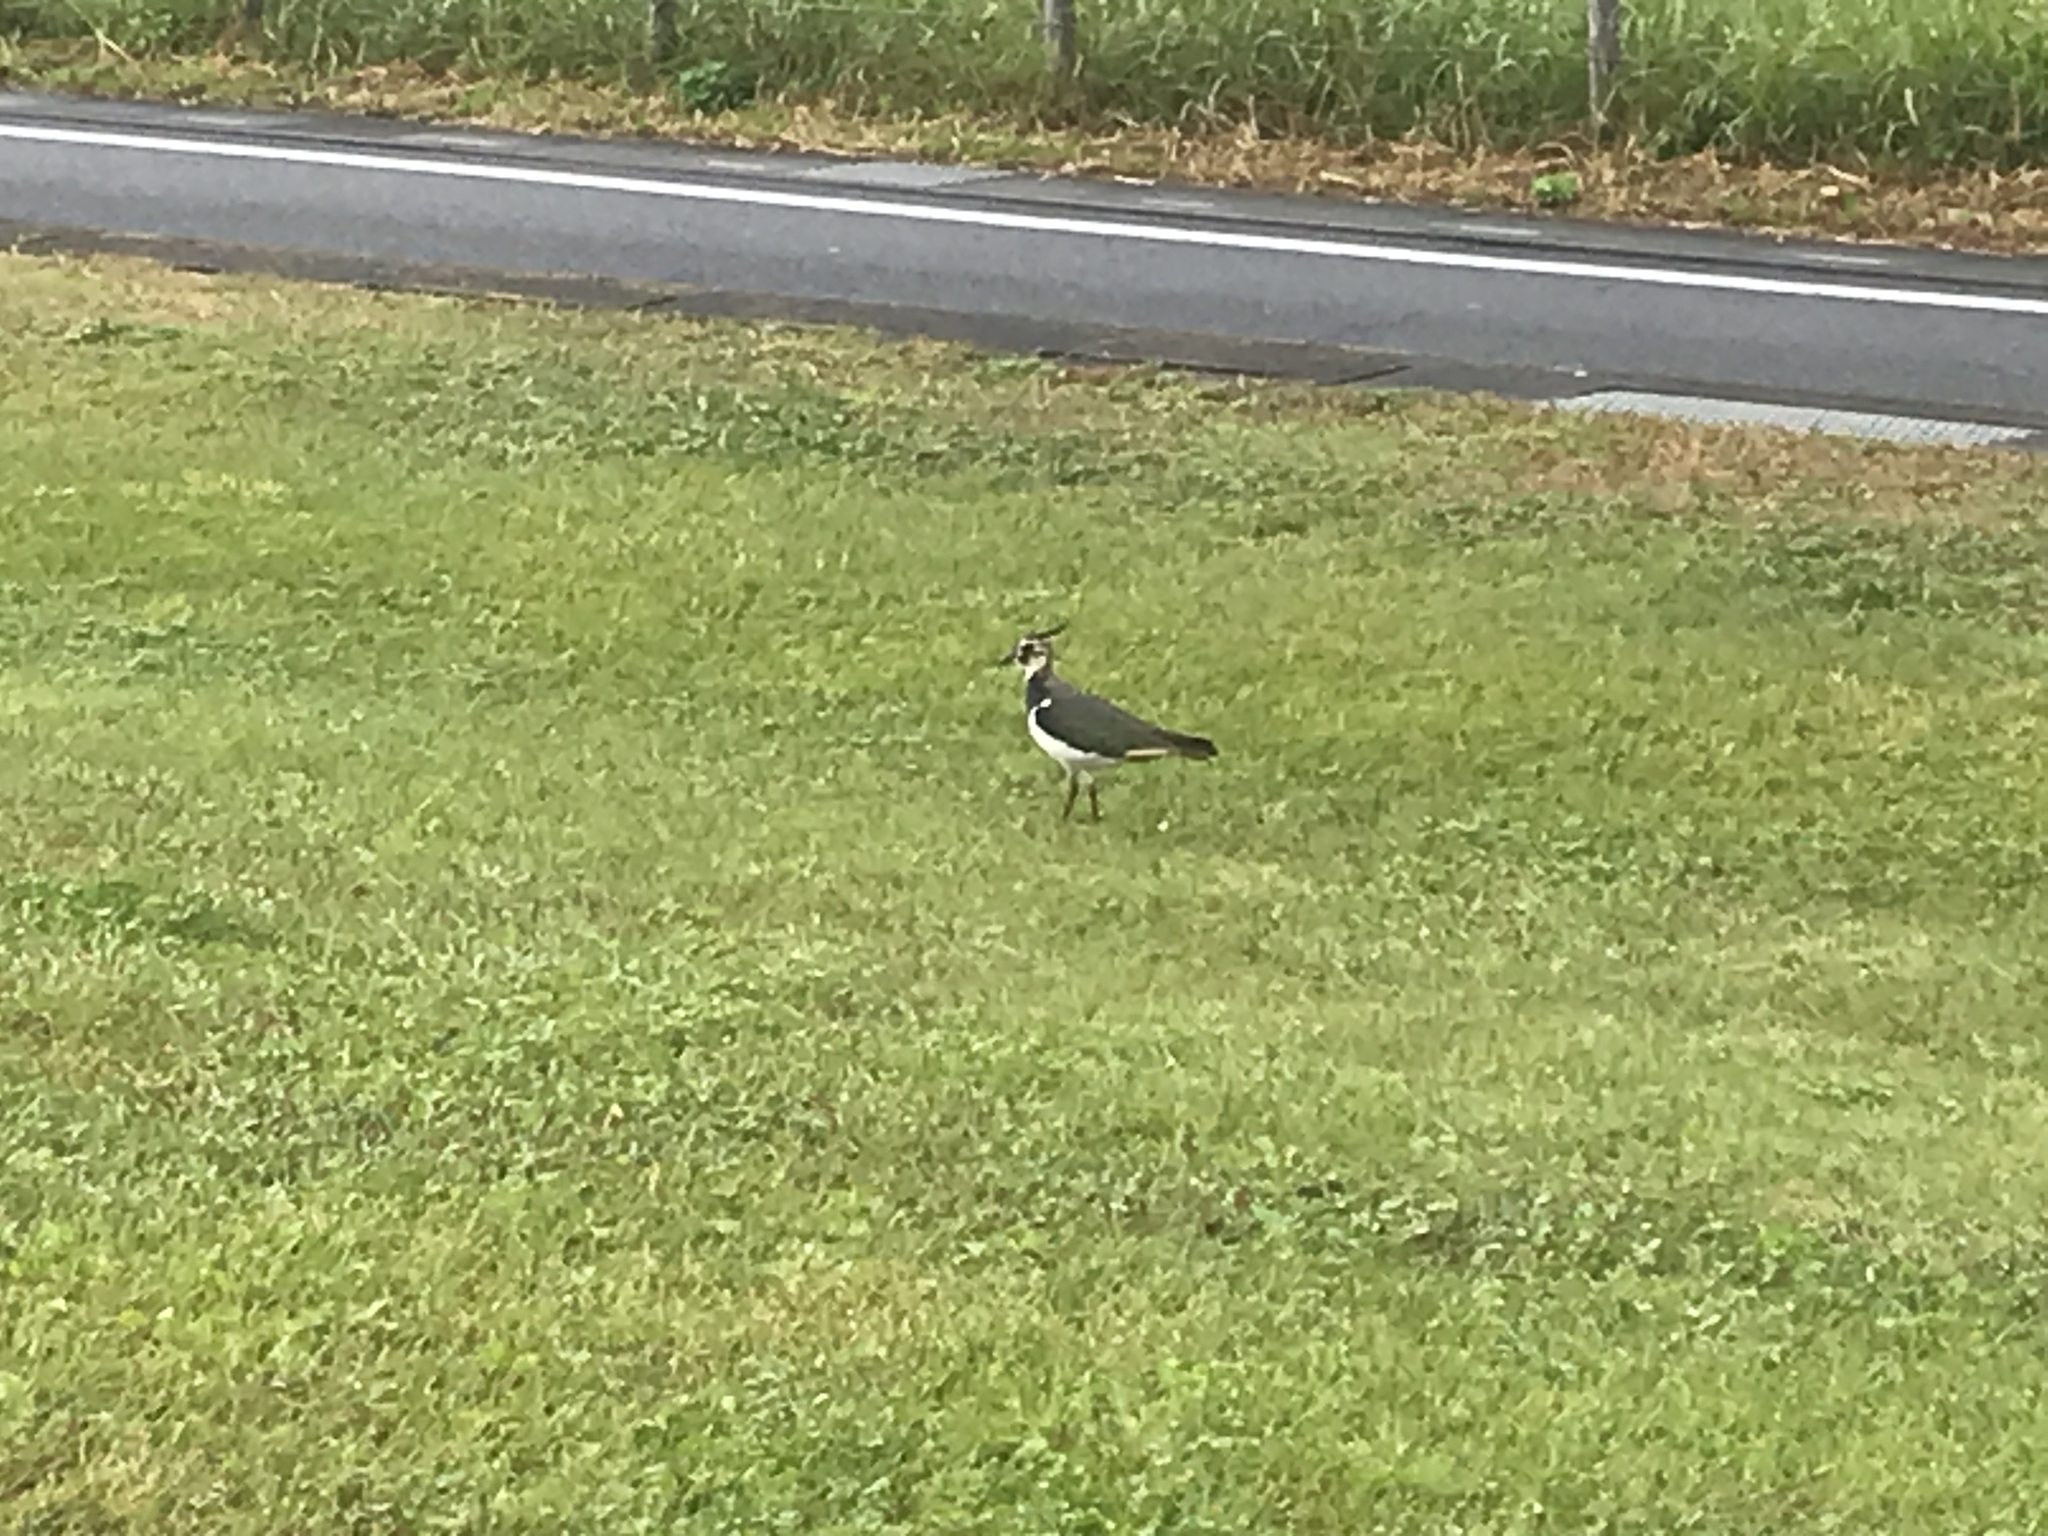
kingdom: Animalia
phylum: Chordata
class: Aves
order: Charadriiformes
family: Charadriidae
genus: Vanellus
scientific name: Vanellus vanellus
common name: Northern lapwing
